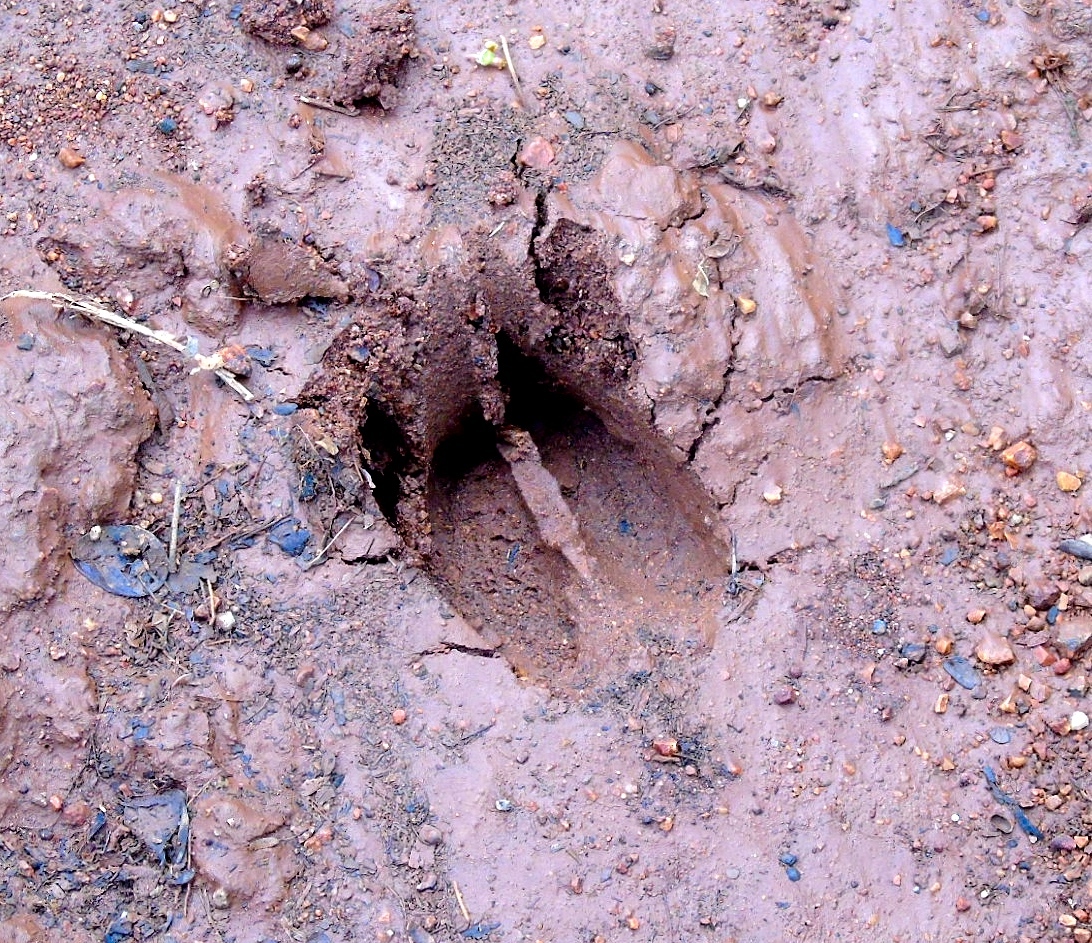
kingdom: Animalia
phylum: Chordata
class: Mammalia
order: Artiodactyla
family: Cervidae
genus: Odocoileus
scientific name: Odocoileus virginianus
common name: White-tailed deer
